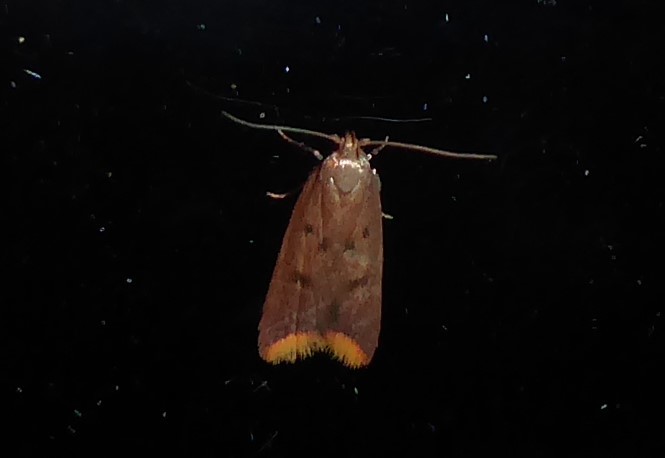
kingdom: Animalia
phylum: Arthropoda
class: Insecta
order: Lepidoptera
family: Oecophoridae
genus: Tachystola
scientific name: Tachystola acroxantha
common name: Ruddy streak
